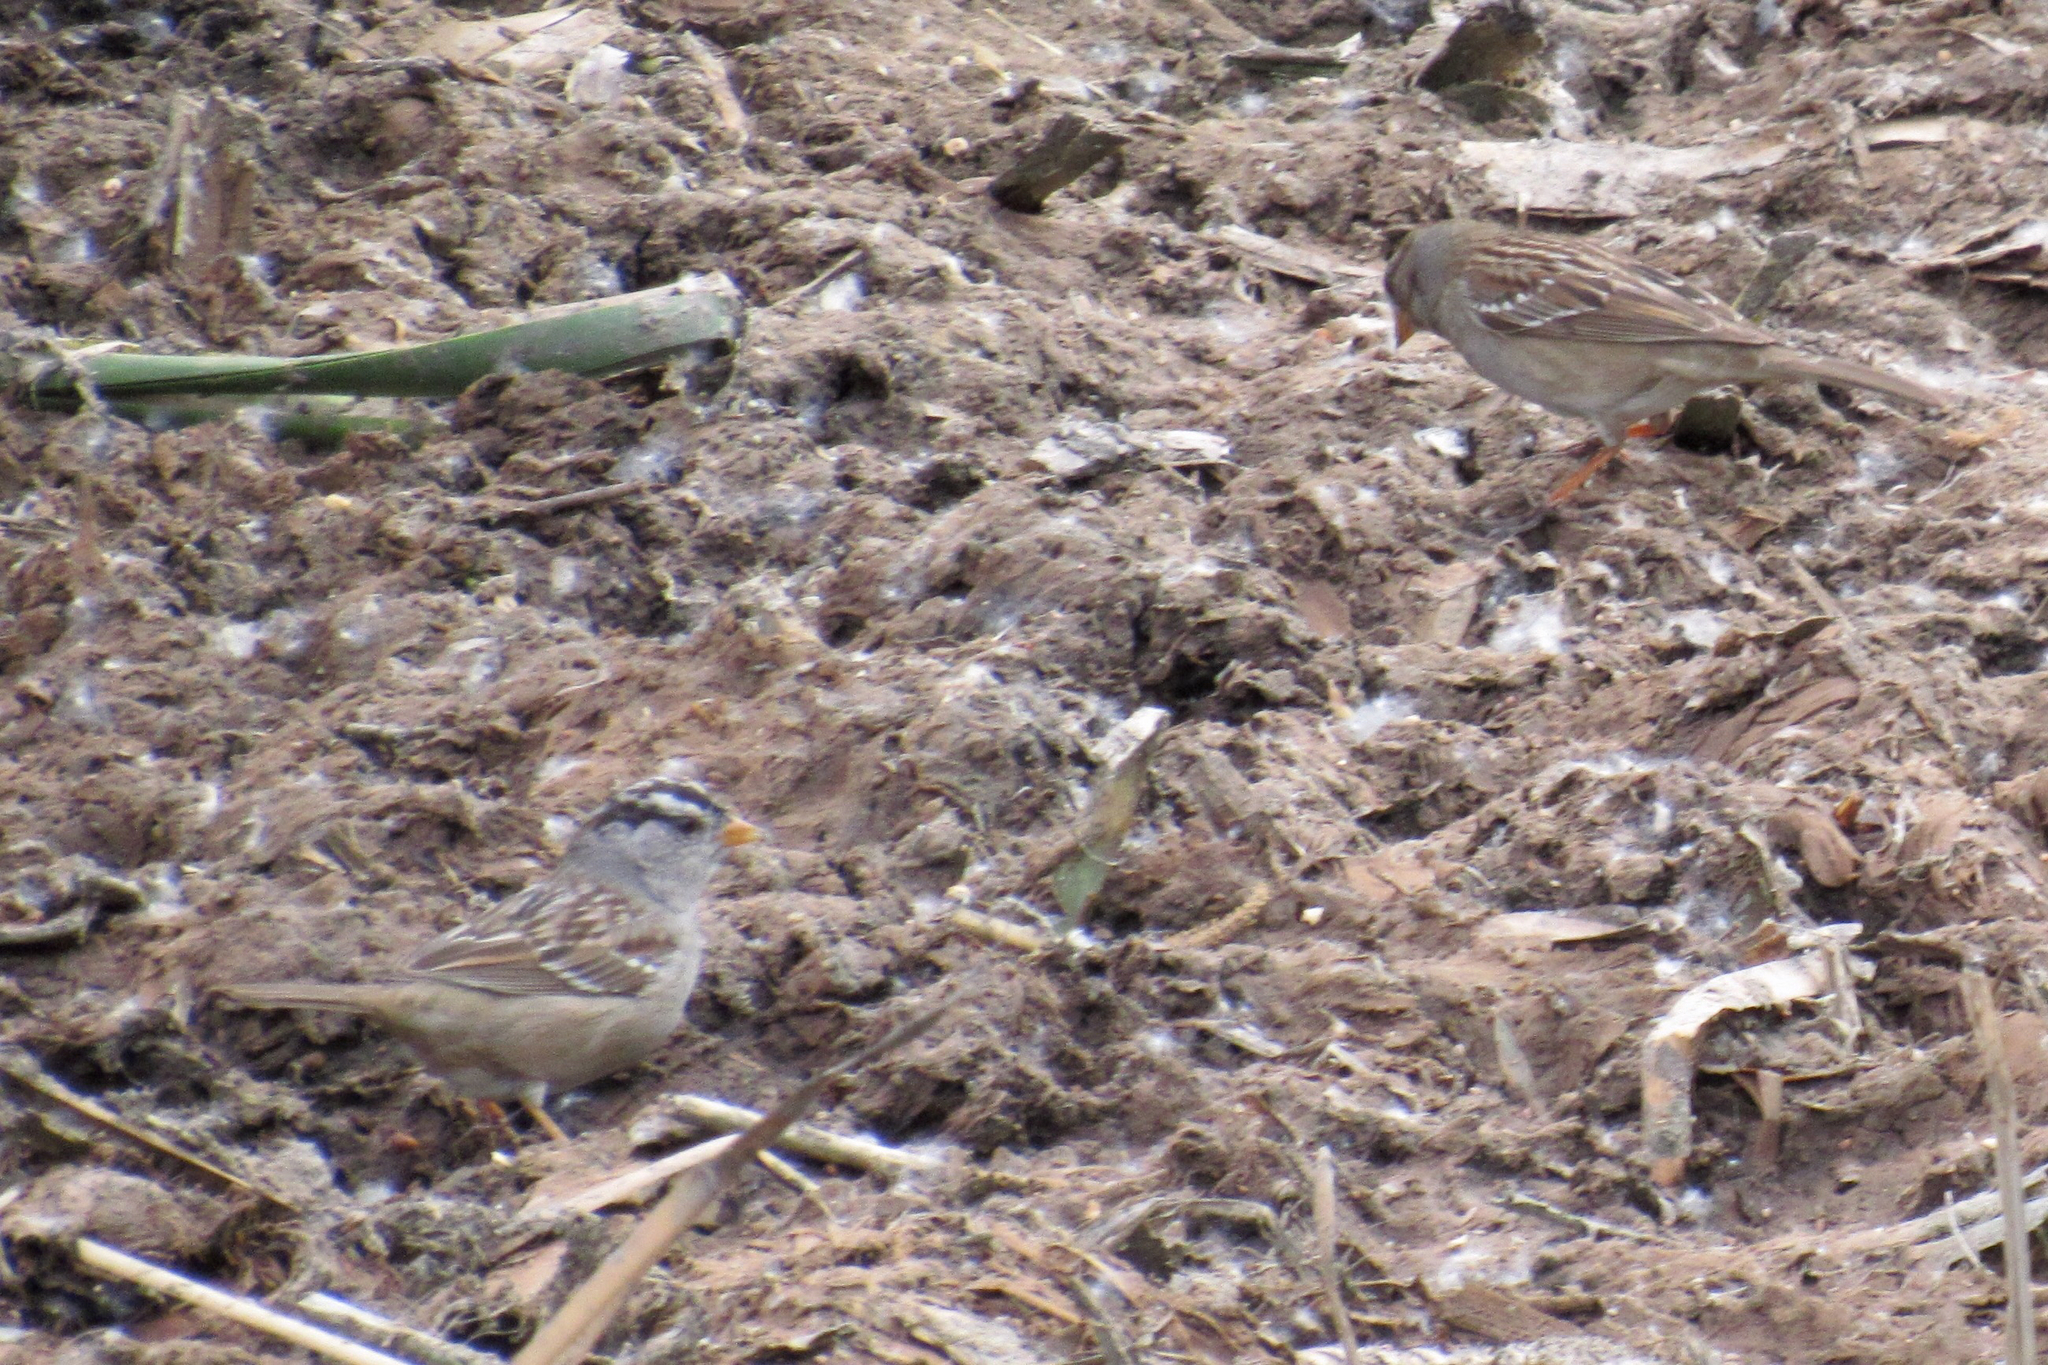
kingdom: Animalia
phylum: Chordata
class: Aves
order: Passeriformes
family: Passerellidae
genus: Zonotrichia
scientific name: Zonotrichia leucophrys
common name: White-crowned sparrow
